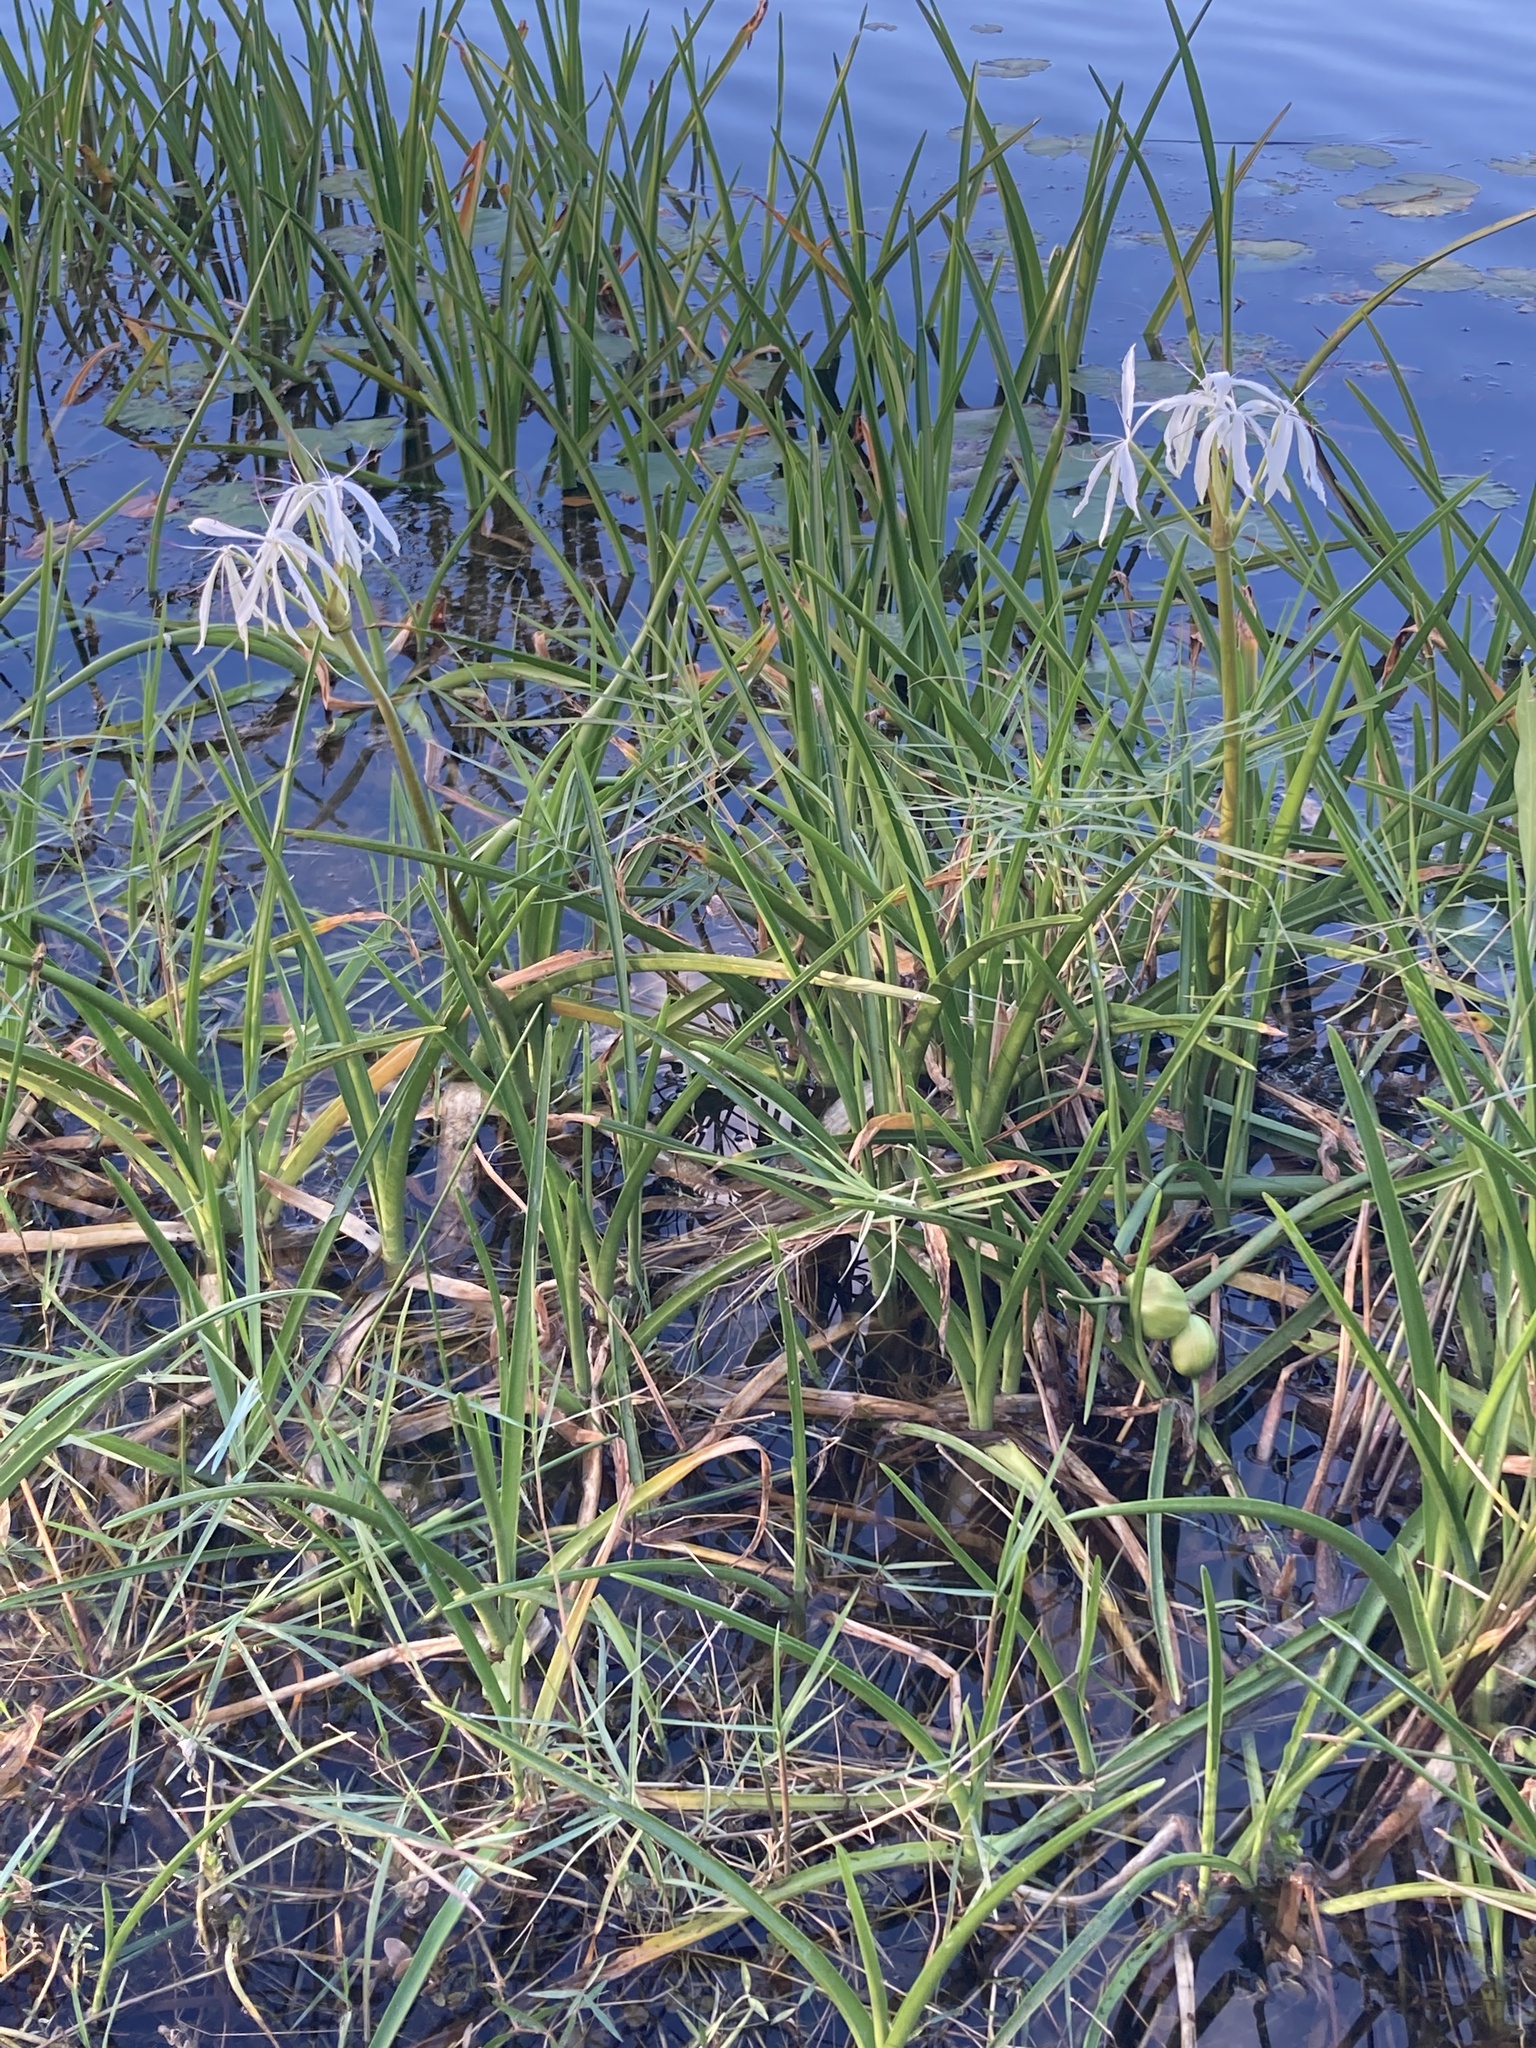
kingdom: Plantae
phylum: Tracheophyta
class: Liliopsida
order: Asparagales
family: Amaryllidaceae
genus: Crinum
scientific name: Crinum americanum
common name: Florida swamp-lily
